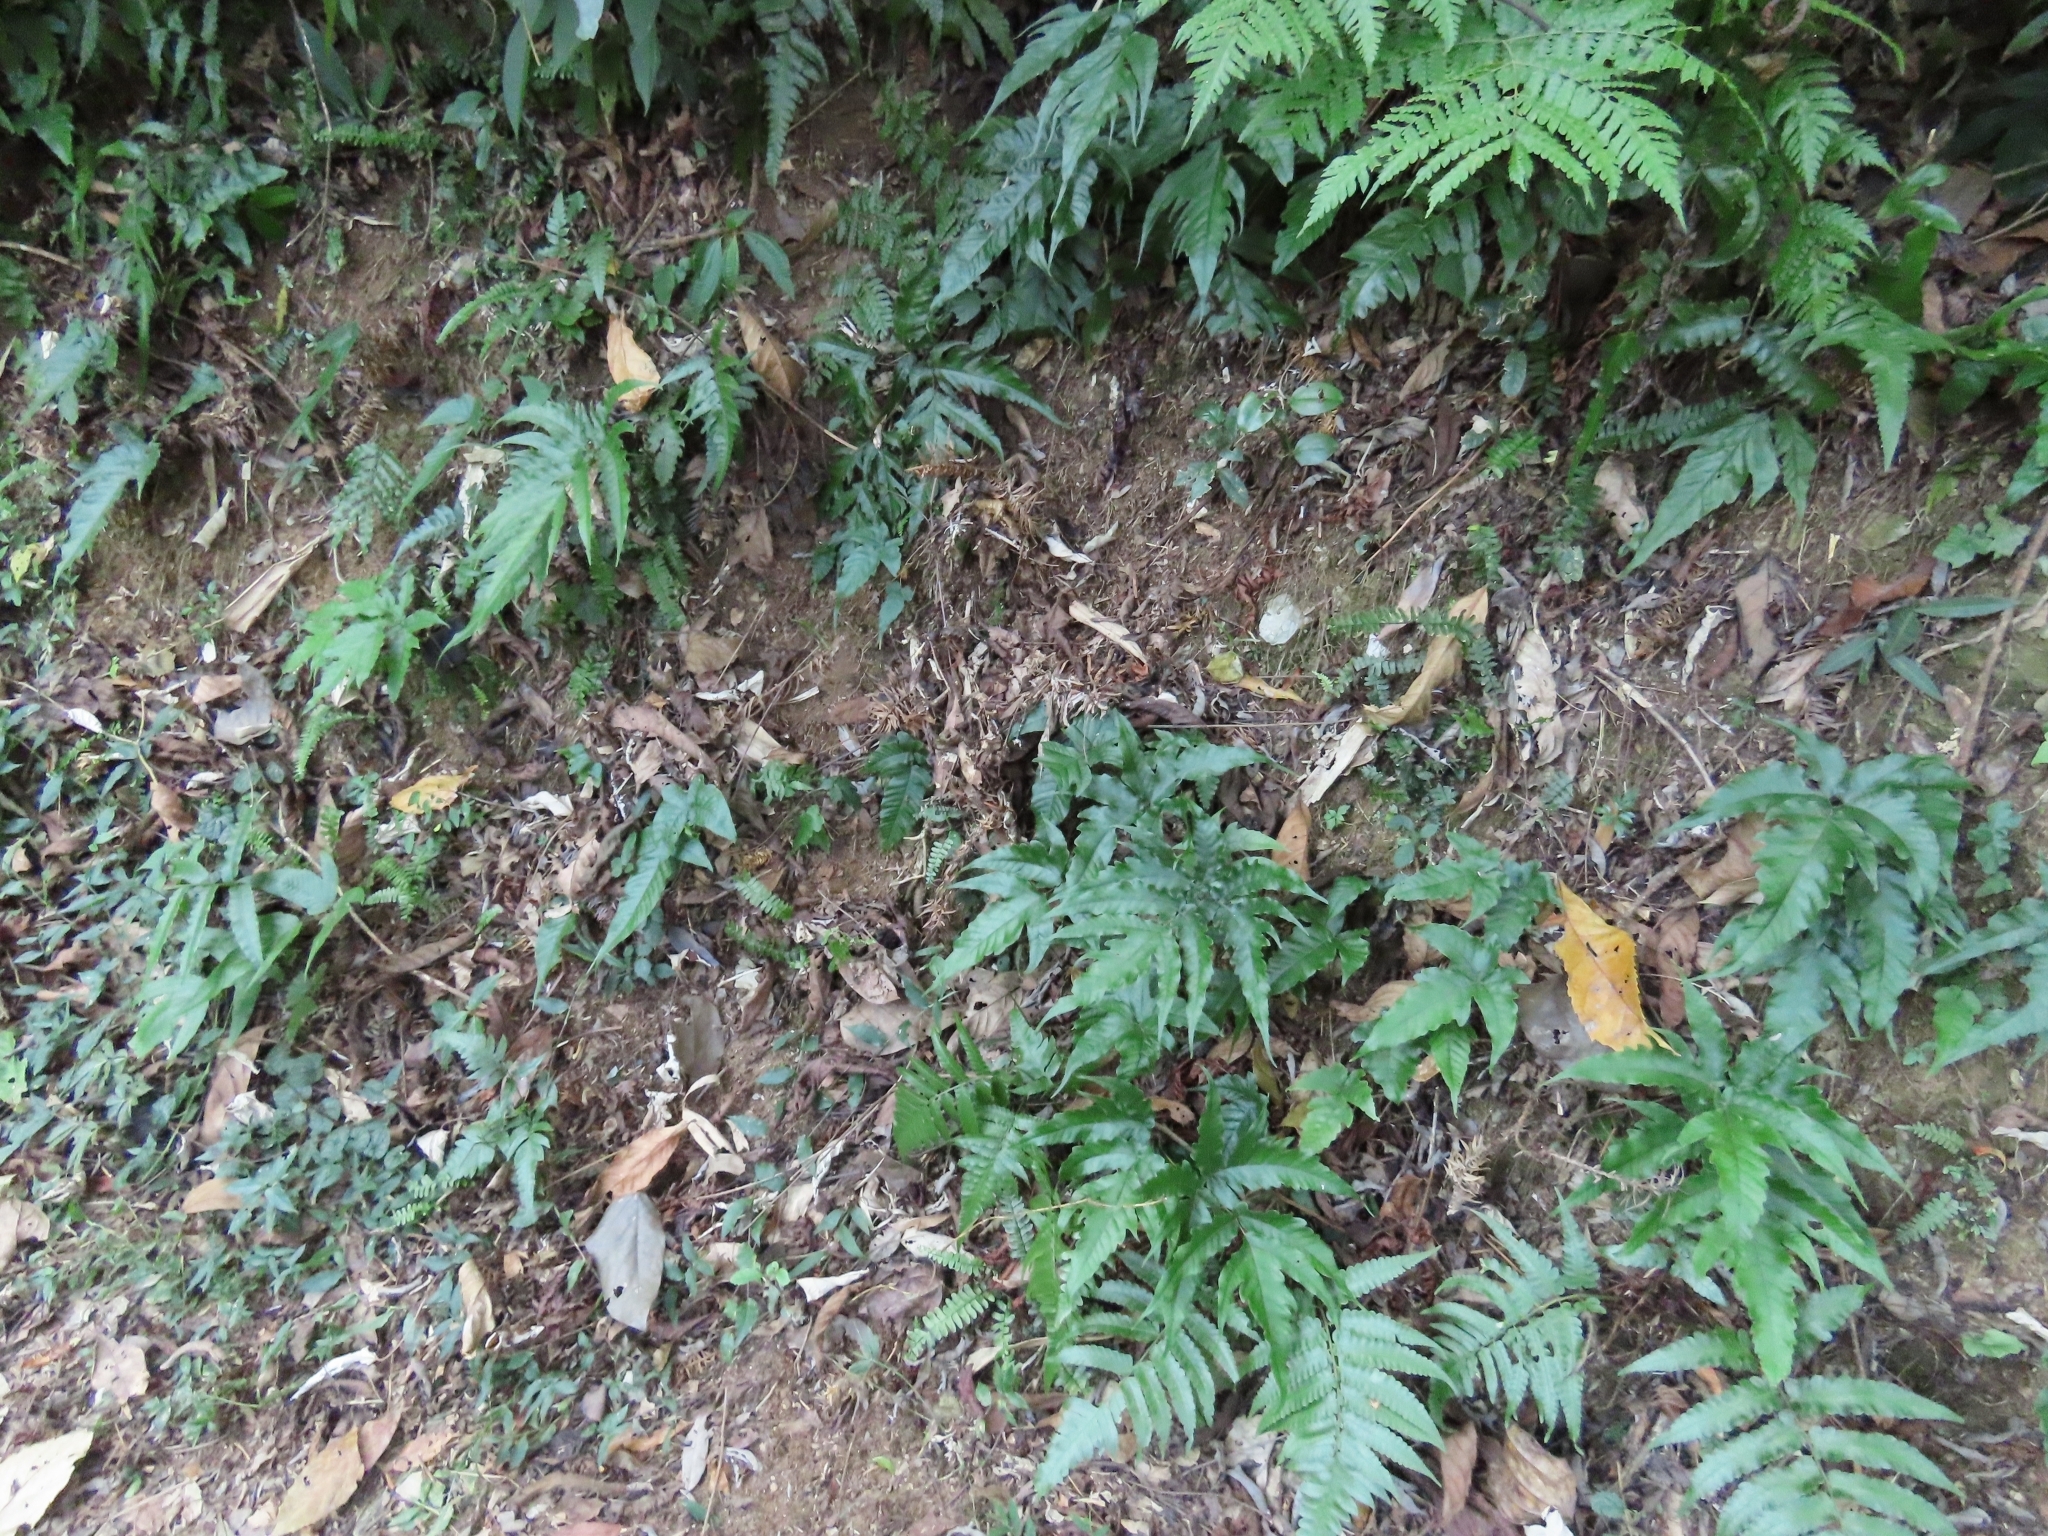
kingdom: Plantae
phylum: Tracheophyta
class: Polypodiopsida
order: Polypodiales
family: Aspleniaceae
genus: Asplenium
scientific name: Asplenium normale
